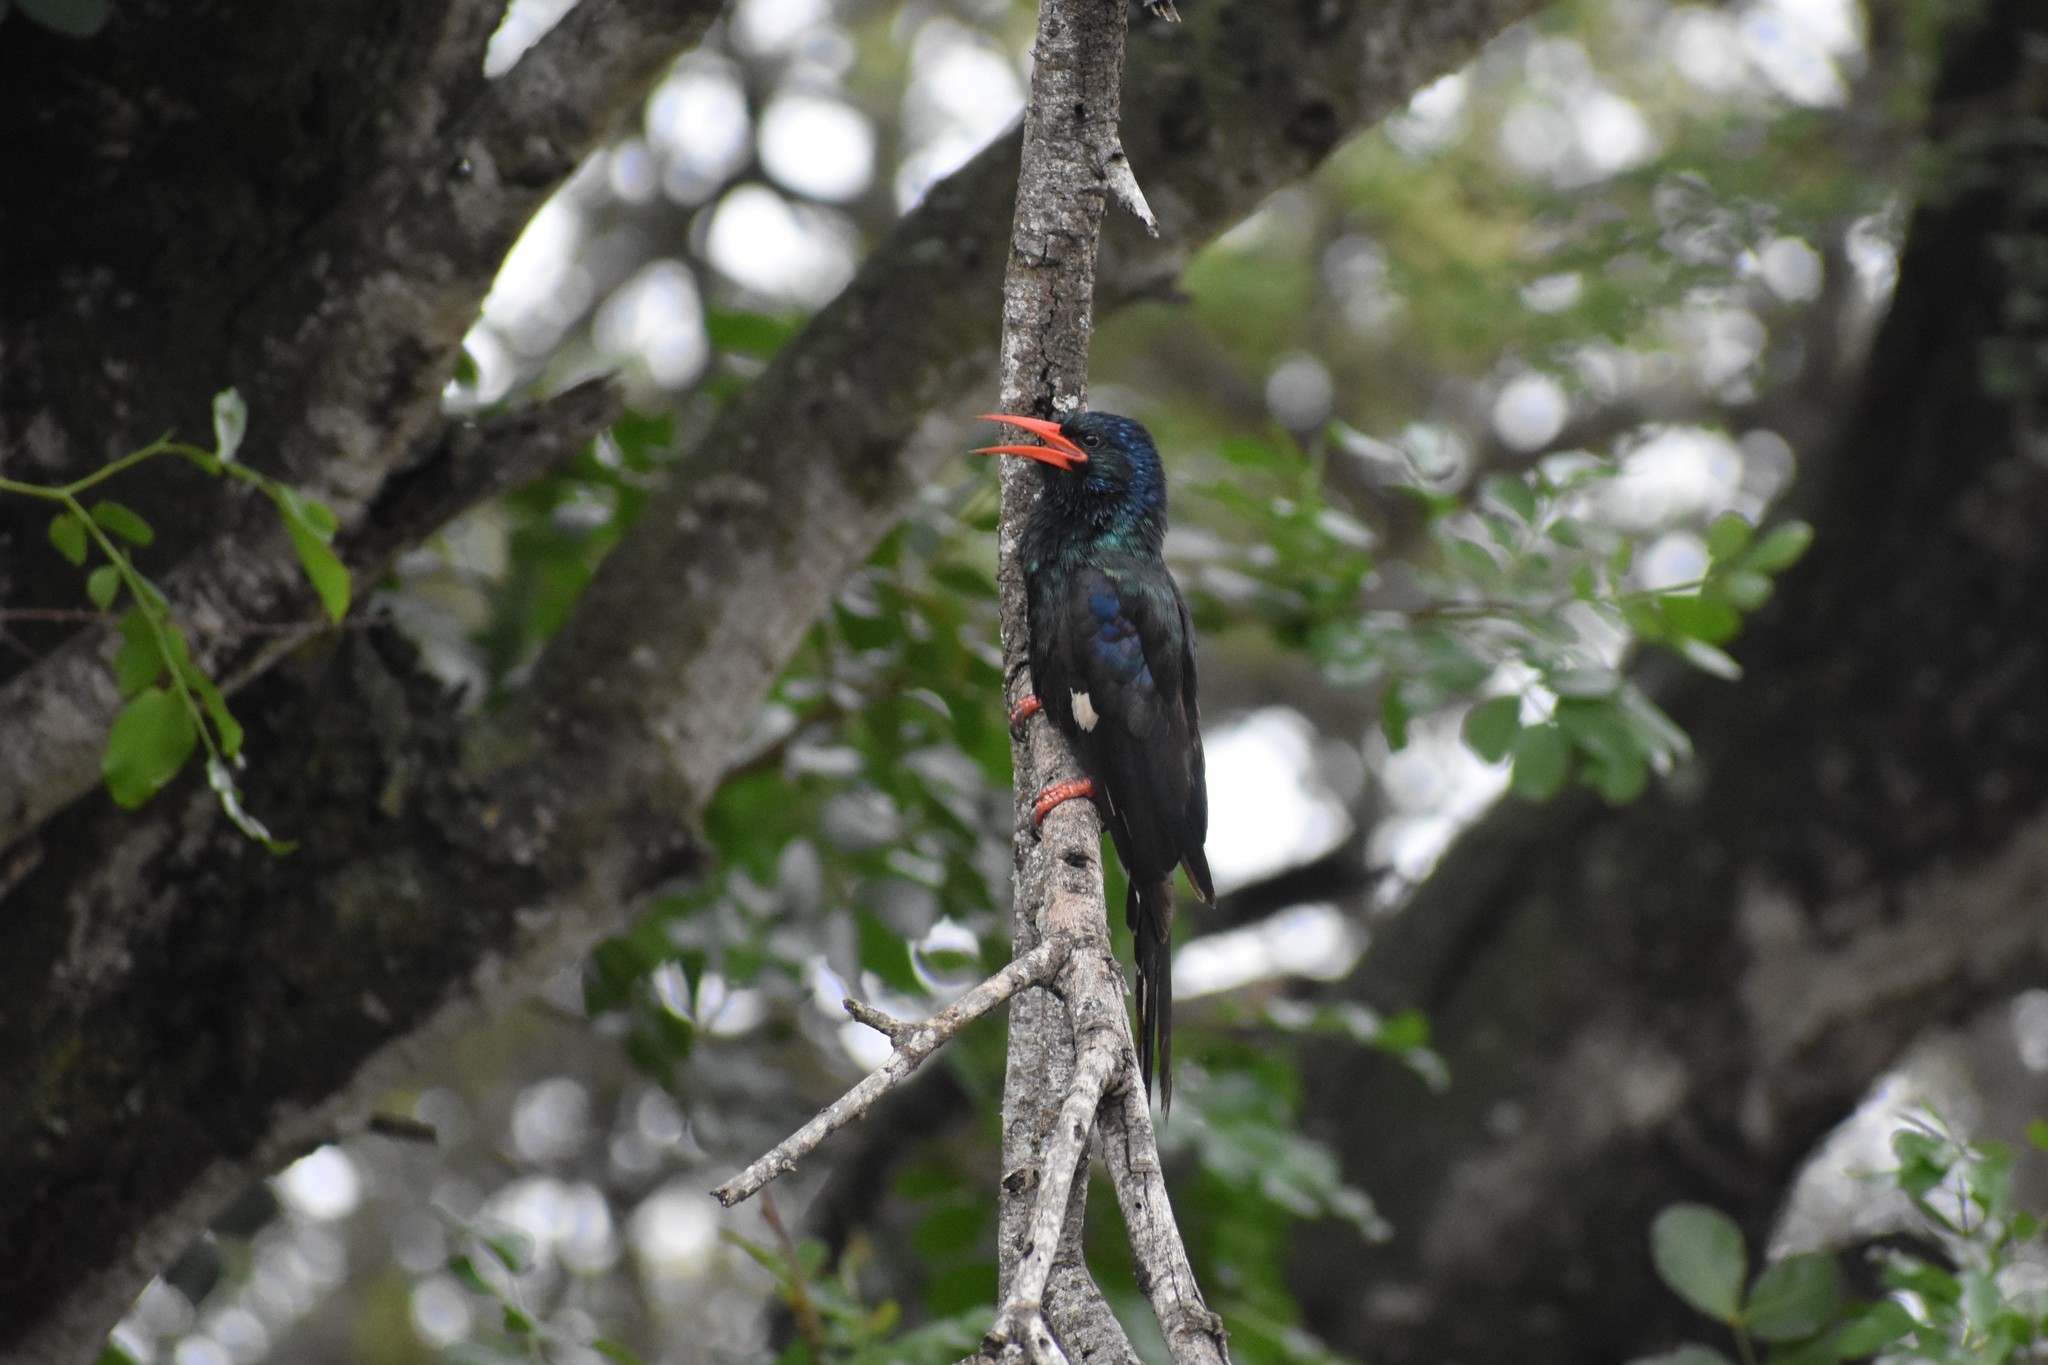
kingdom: Animalia
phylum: Chordata
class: Aves
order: Bucerotiformes
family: Phoeniculidae
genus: Phoeniculus
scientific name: Phoeniculus purpureus
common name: Green woodhoopoe
